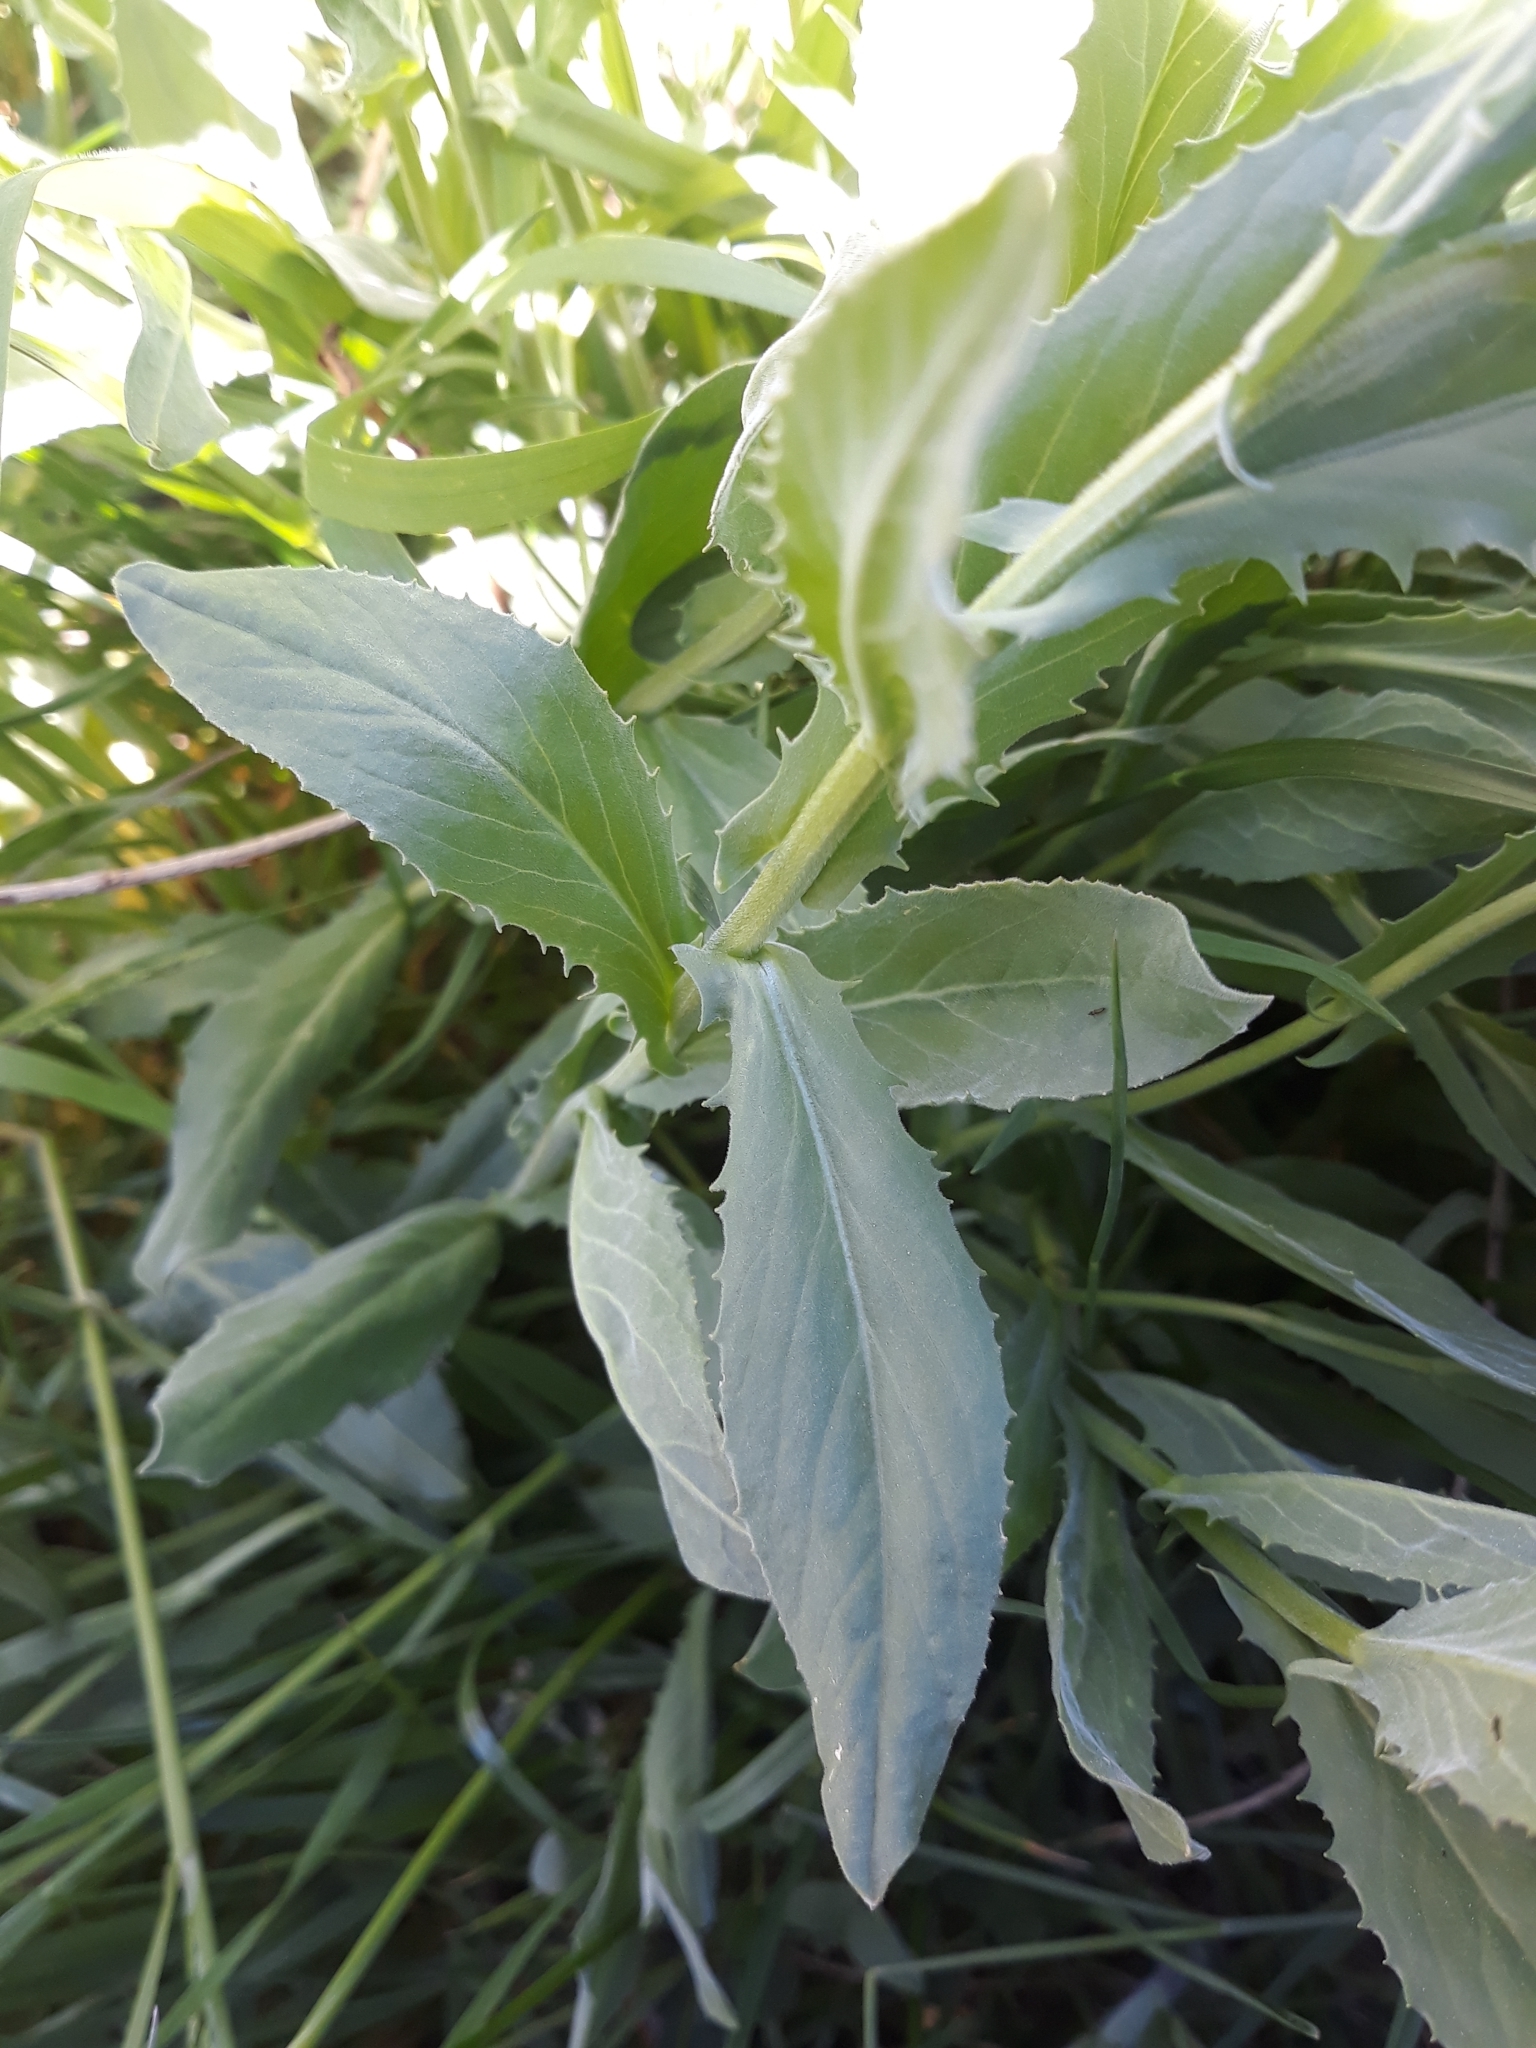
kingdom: Plantae
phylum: Tracheophyta
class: Magnoliopsida
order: Brassicales
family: Brassicaceae
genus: Lepidium
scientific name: Lepidium draba
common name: Hoary cress
